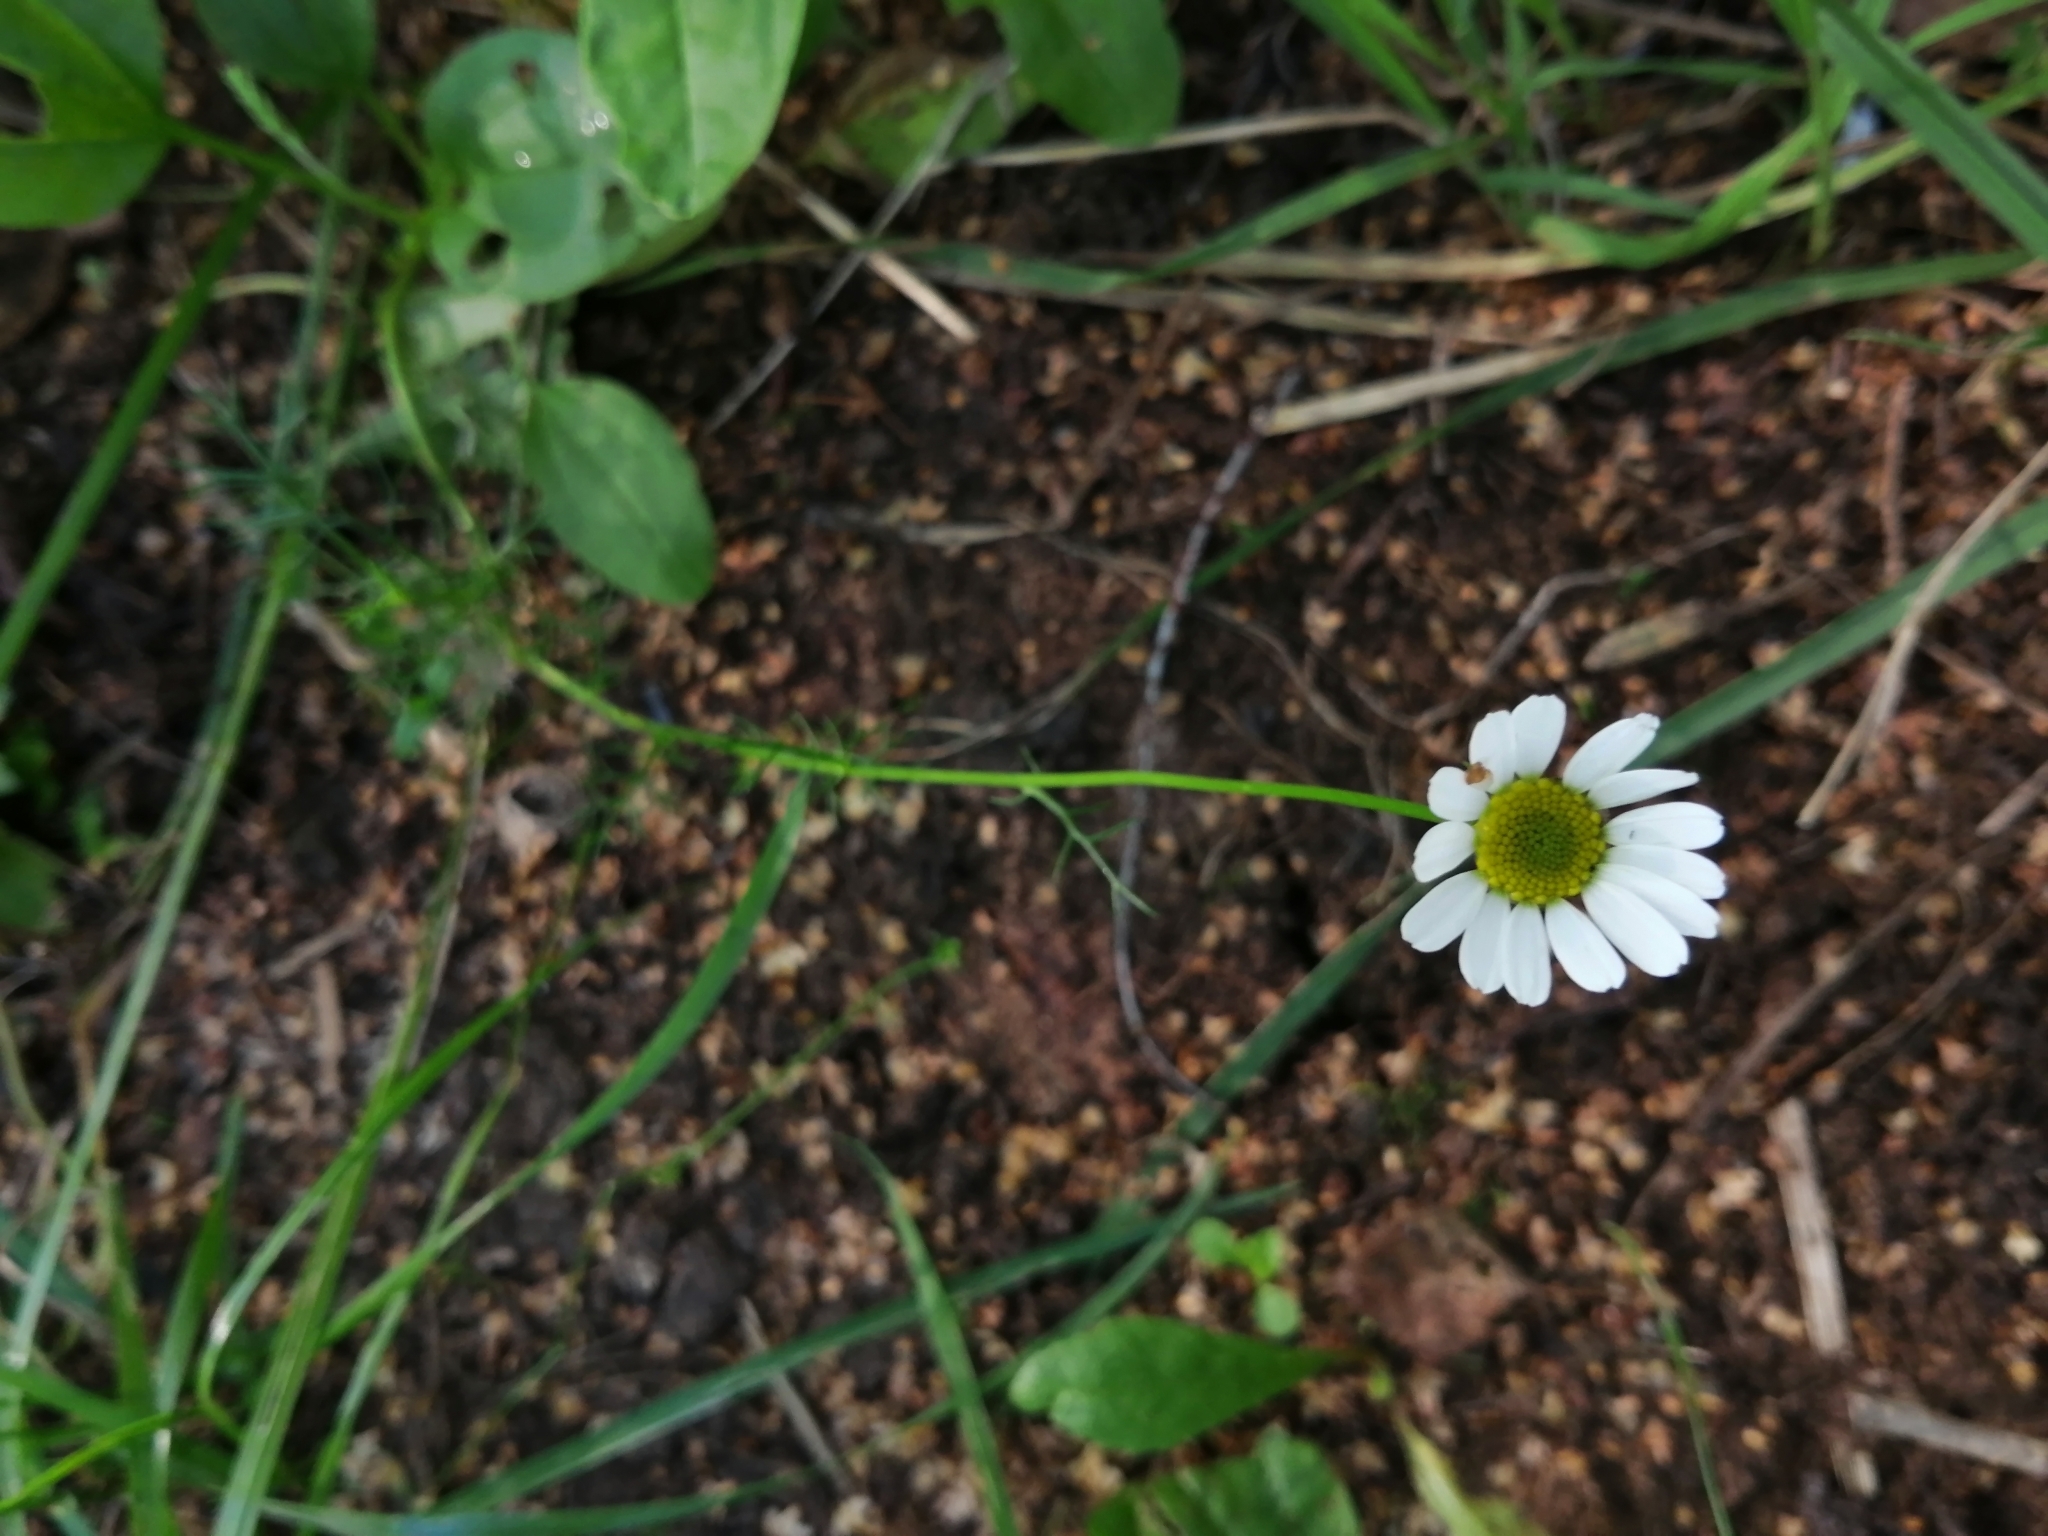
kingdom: Plantae
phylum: Tracheophyta
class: Magnoliopsida
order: Asterales
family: Asteraceae
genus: Tripleurospermum
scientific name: Tripleurospermum inodorum
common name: Scentless mayweed
